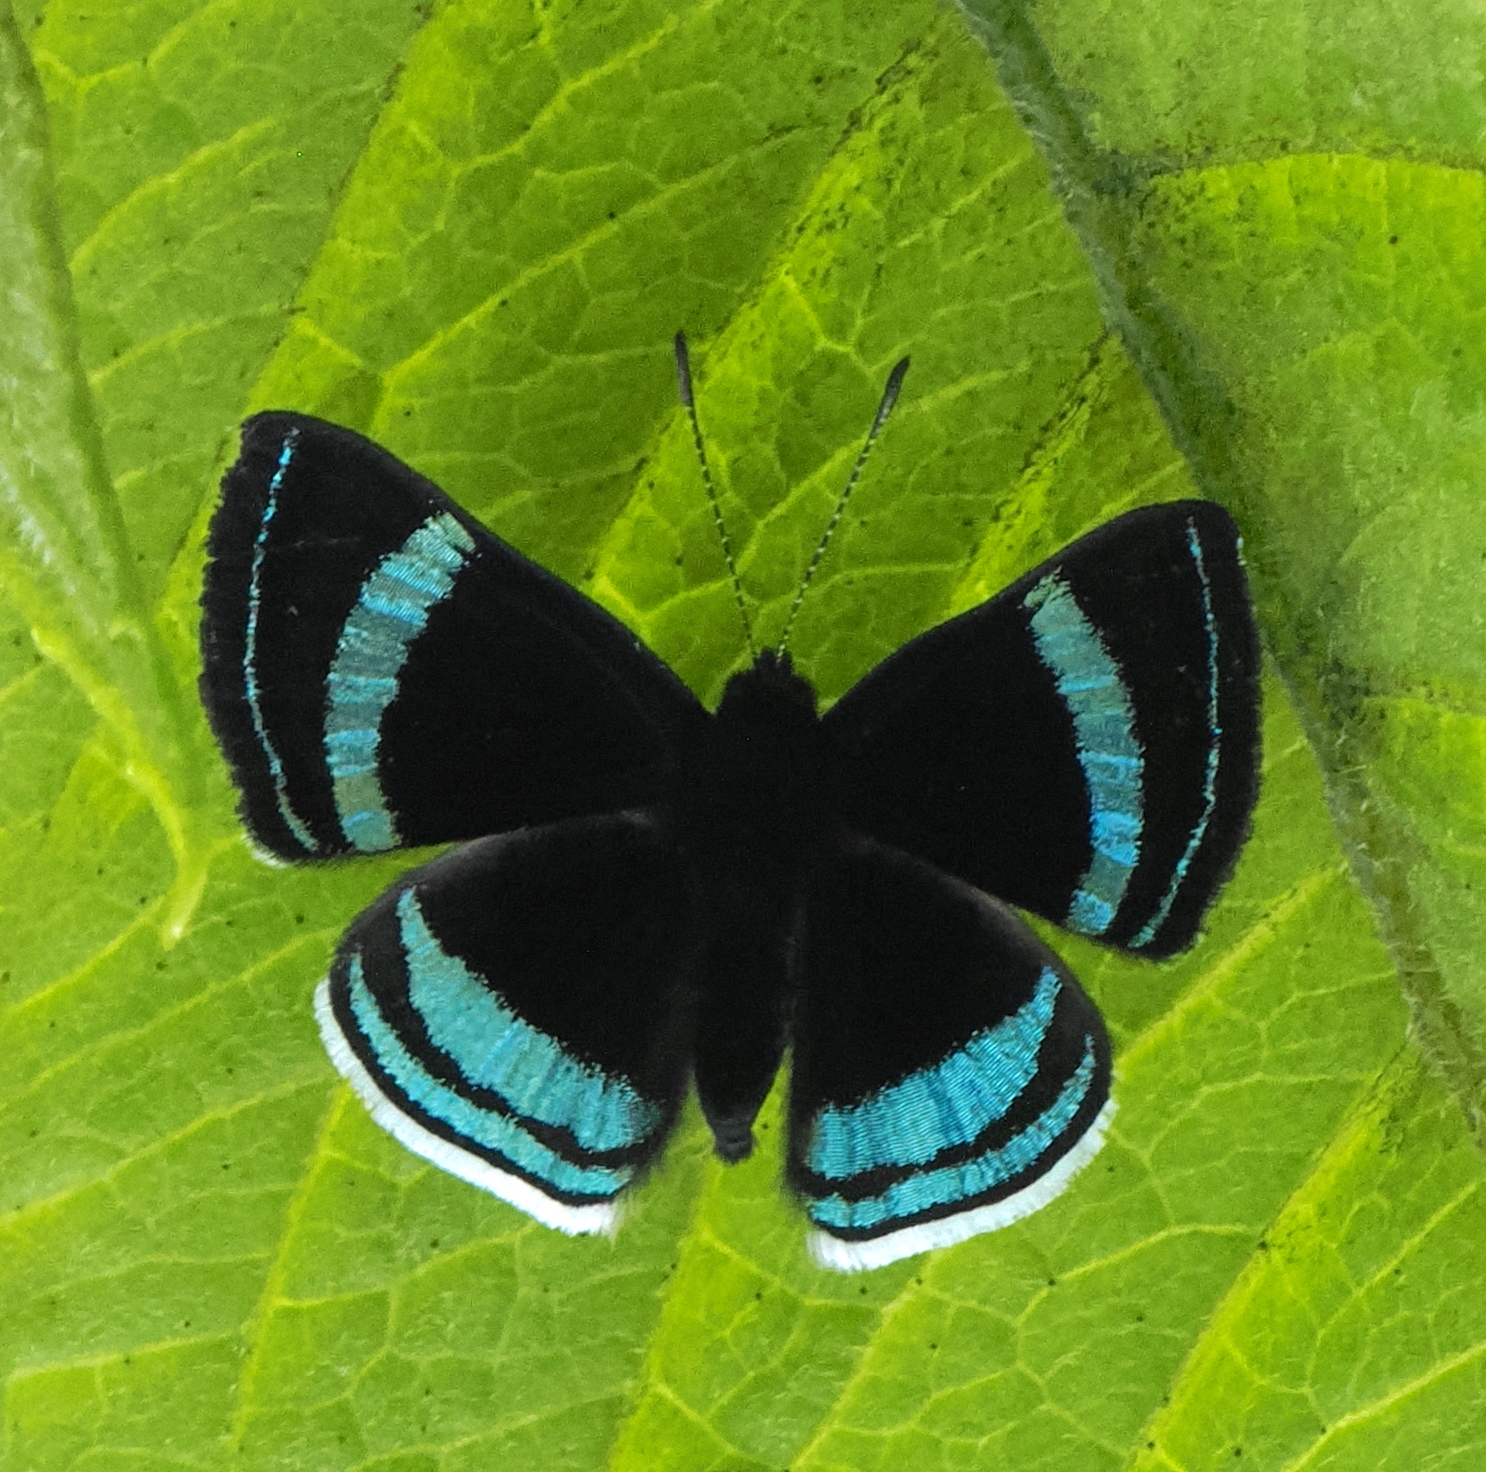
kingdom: Animalia
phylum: Arthropoda
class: Insecta
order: Lepidoptera
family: Riodinidae
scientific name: Riodinidae
